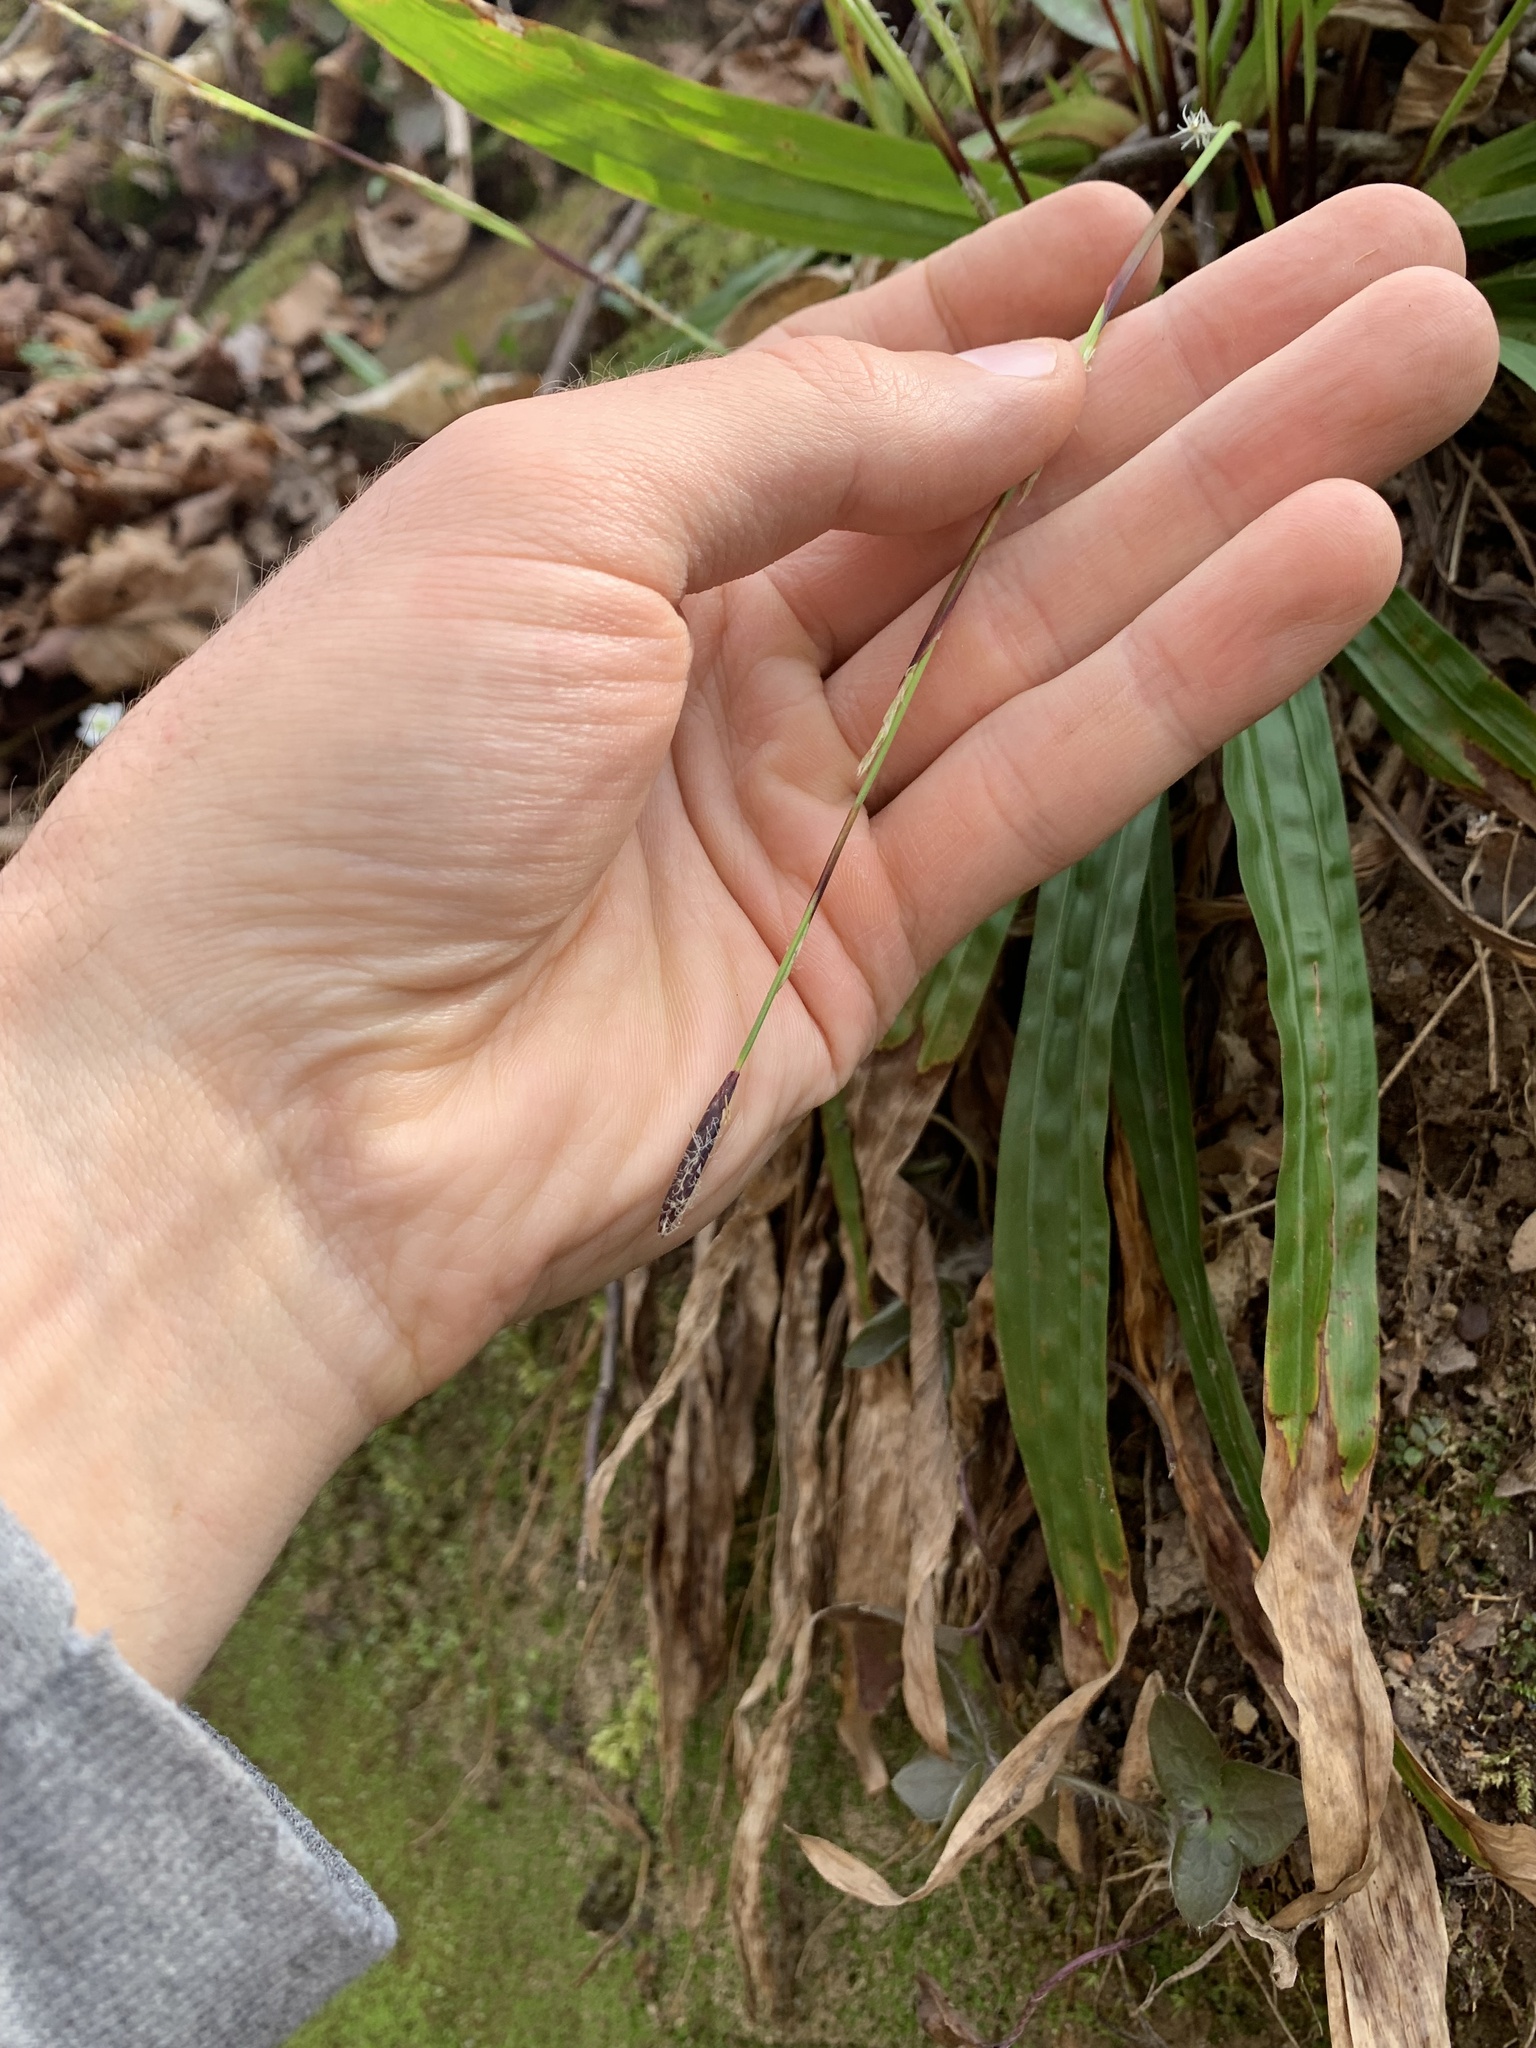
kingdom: Plantae
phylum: Tracheophyta
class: Liliopsida
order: Poales
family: Cyperaceae
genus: Carex
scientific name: Carex plantaginea
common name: Plantain-leaved sedge
